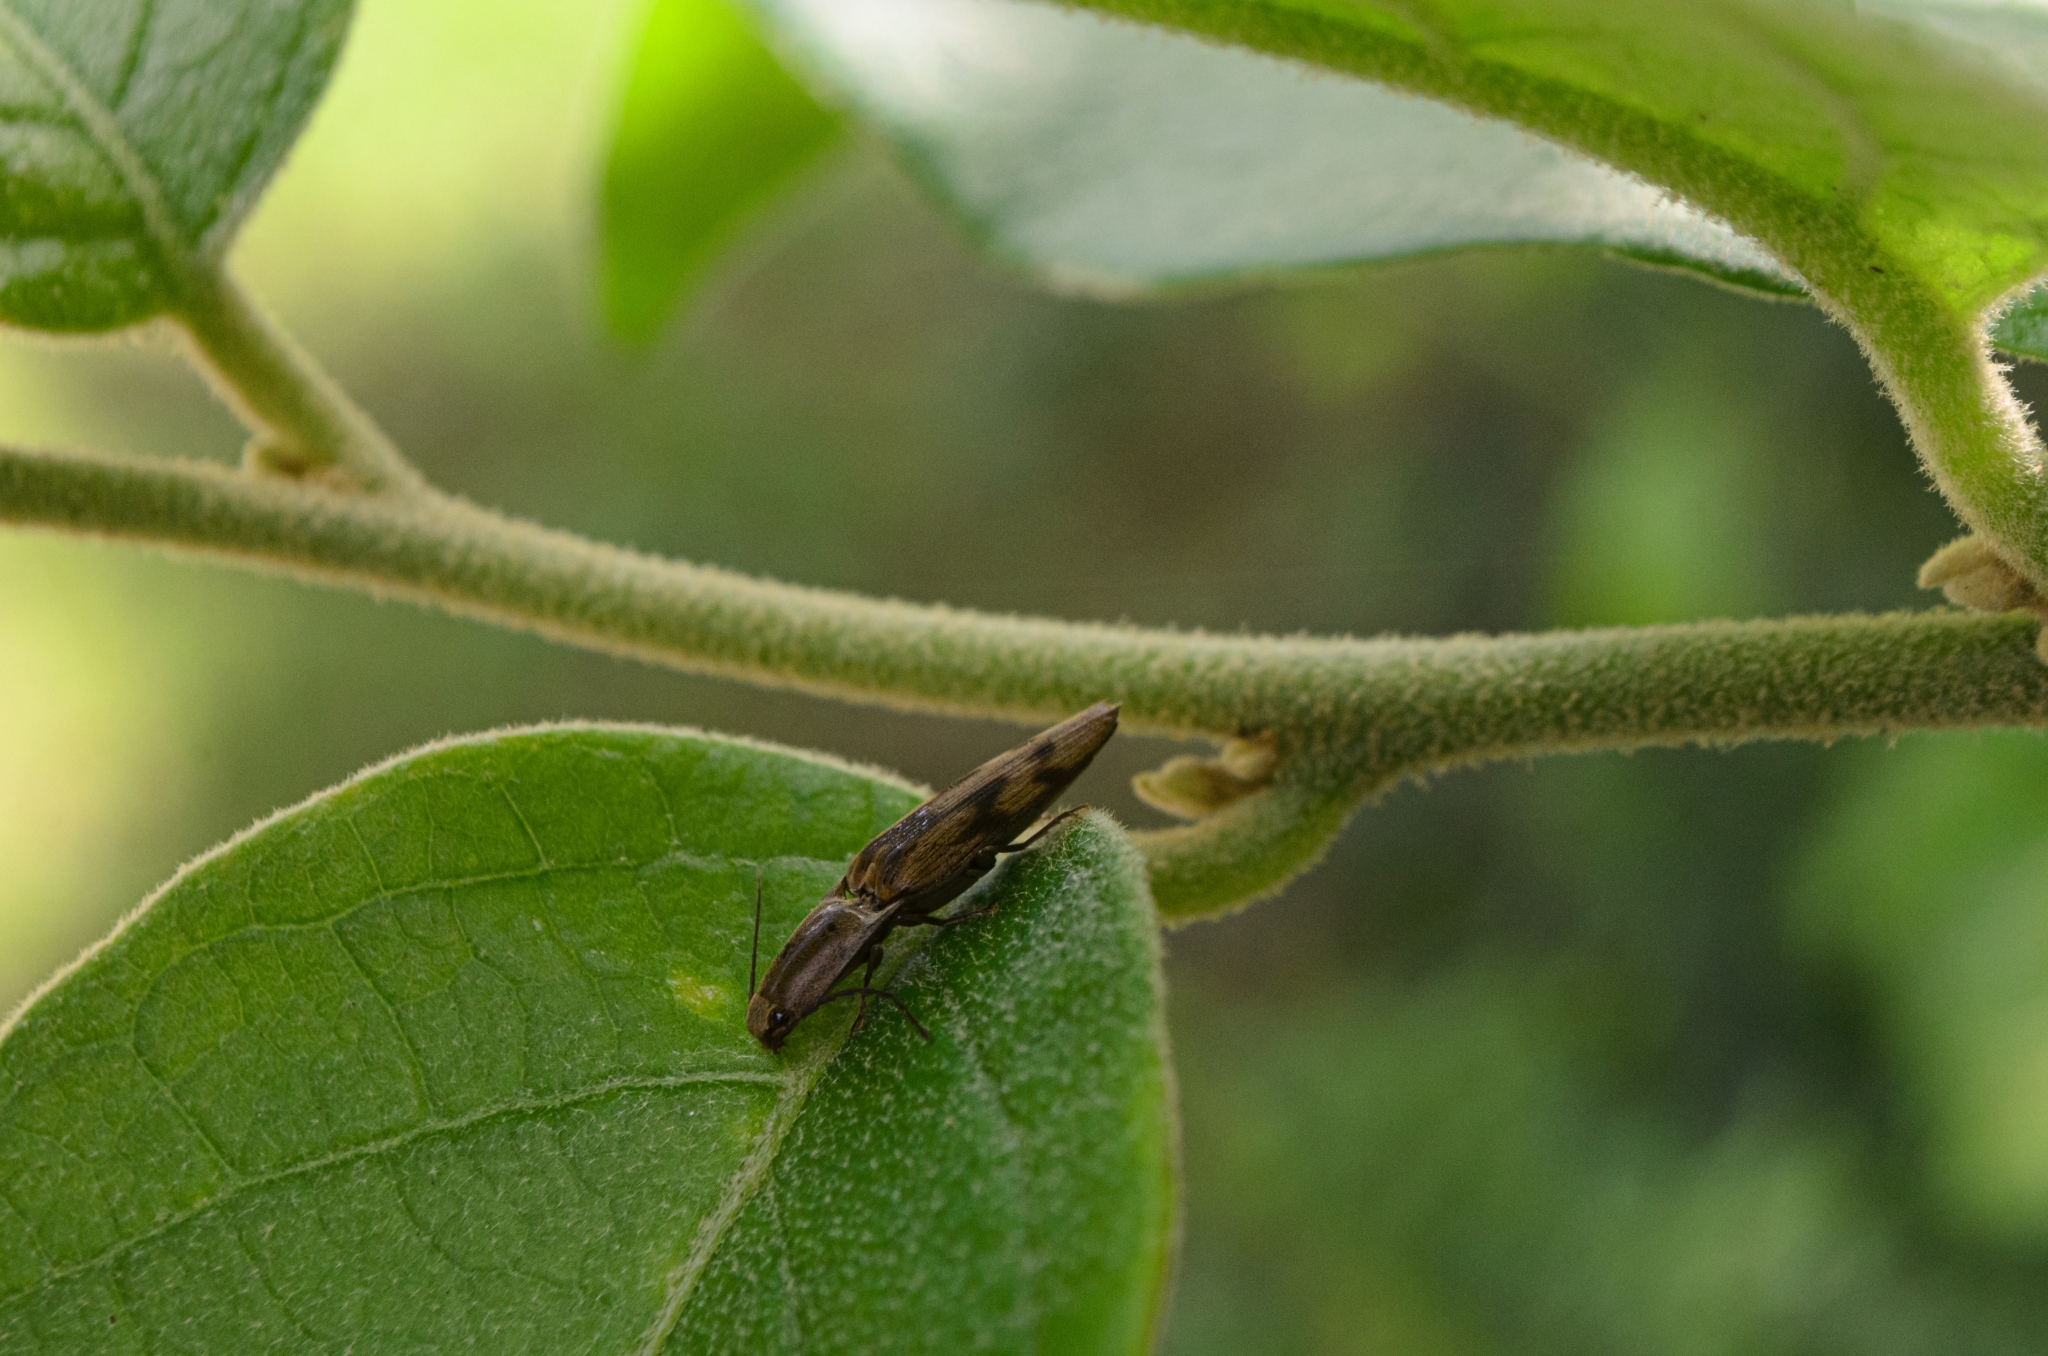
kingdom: Animalia
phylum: Arthropoda
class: Insecta
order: Coleoptera
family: Elateridae
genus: Monocrepidius
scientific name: Monocrepidius
